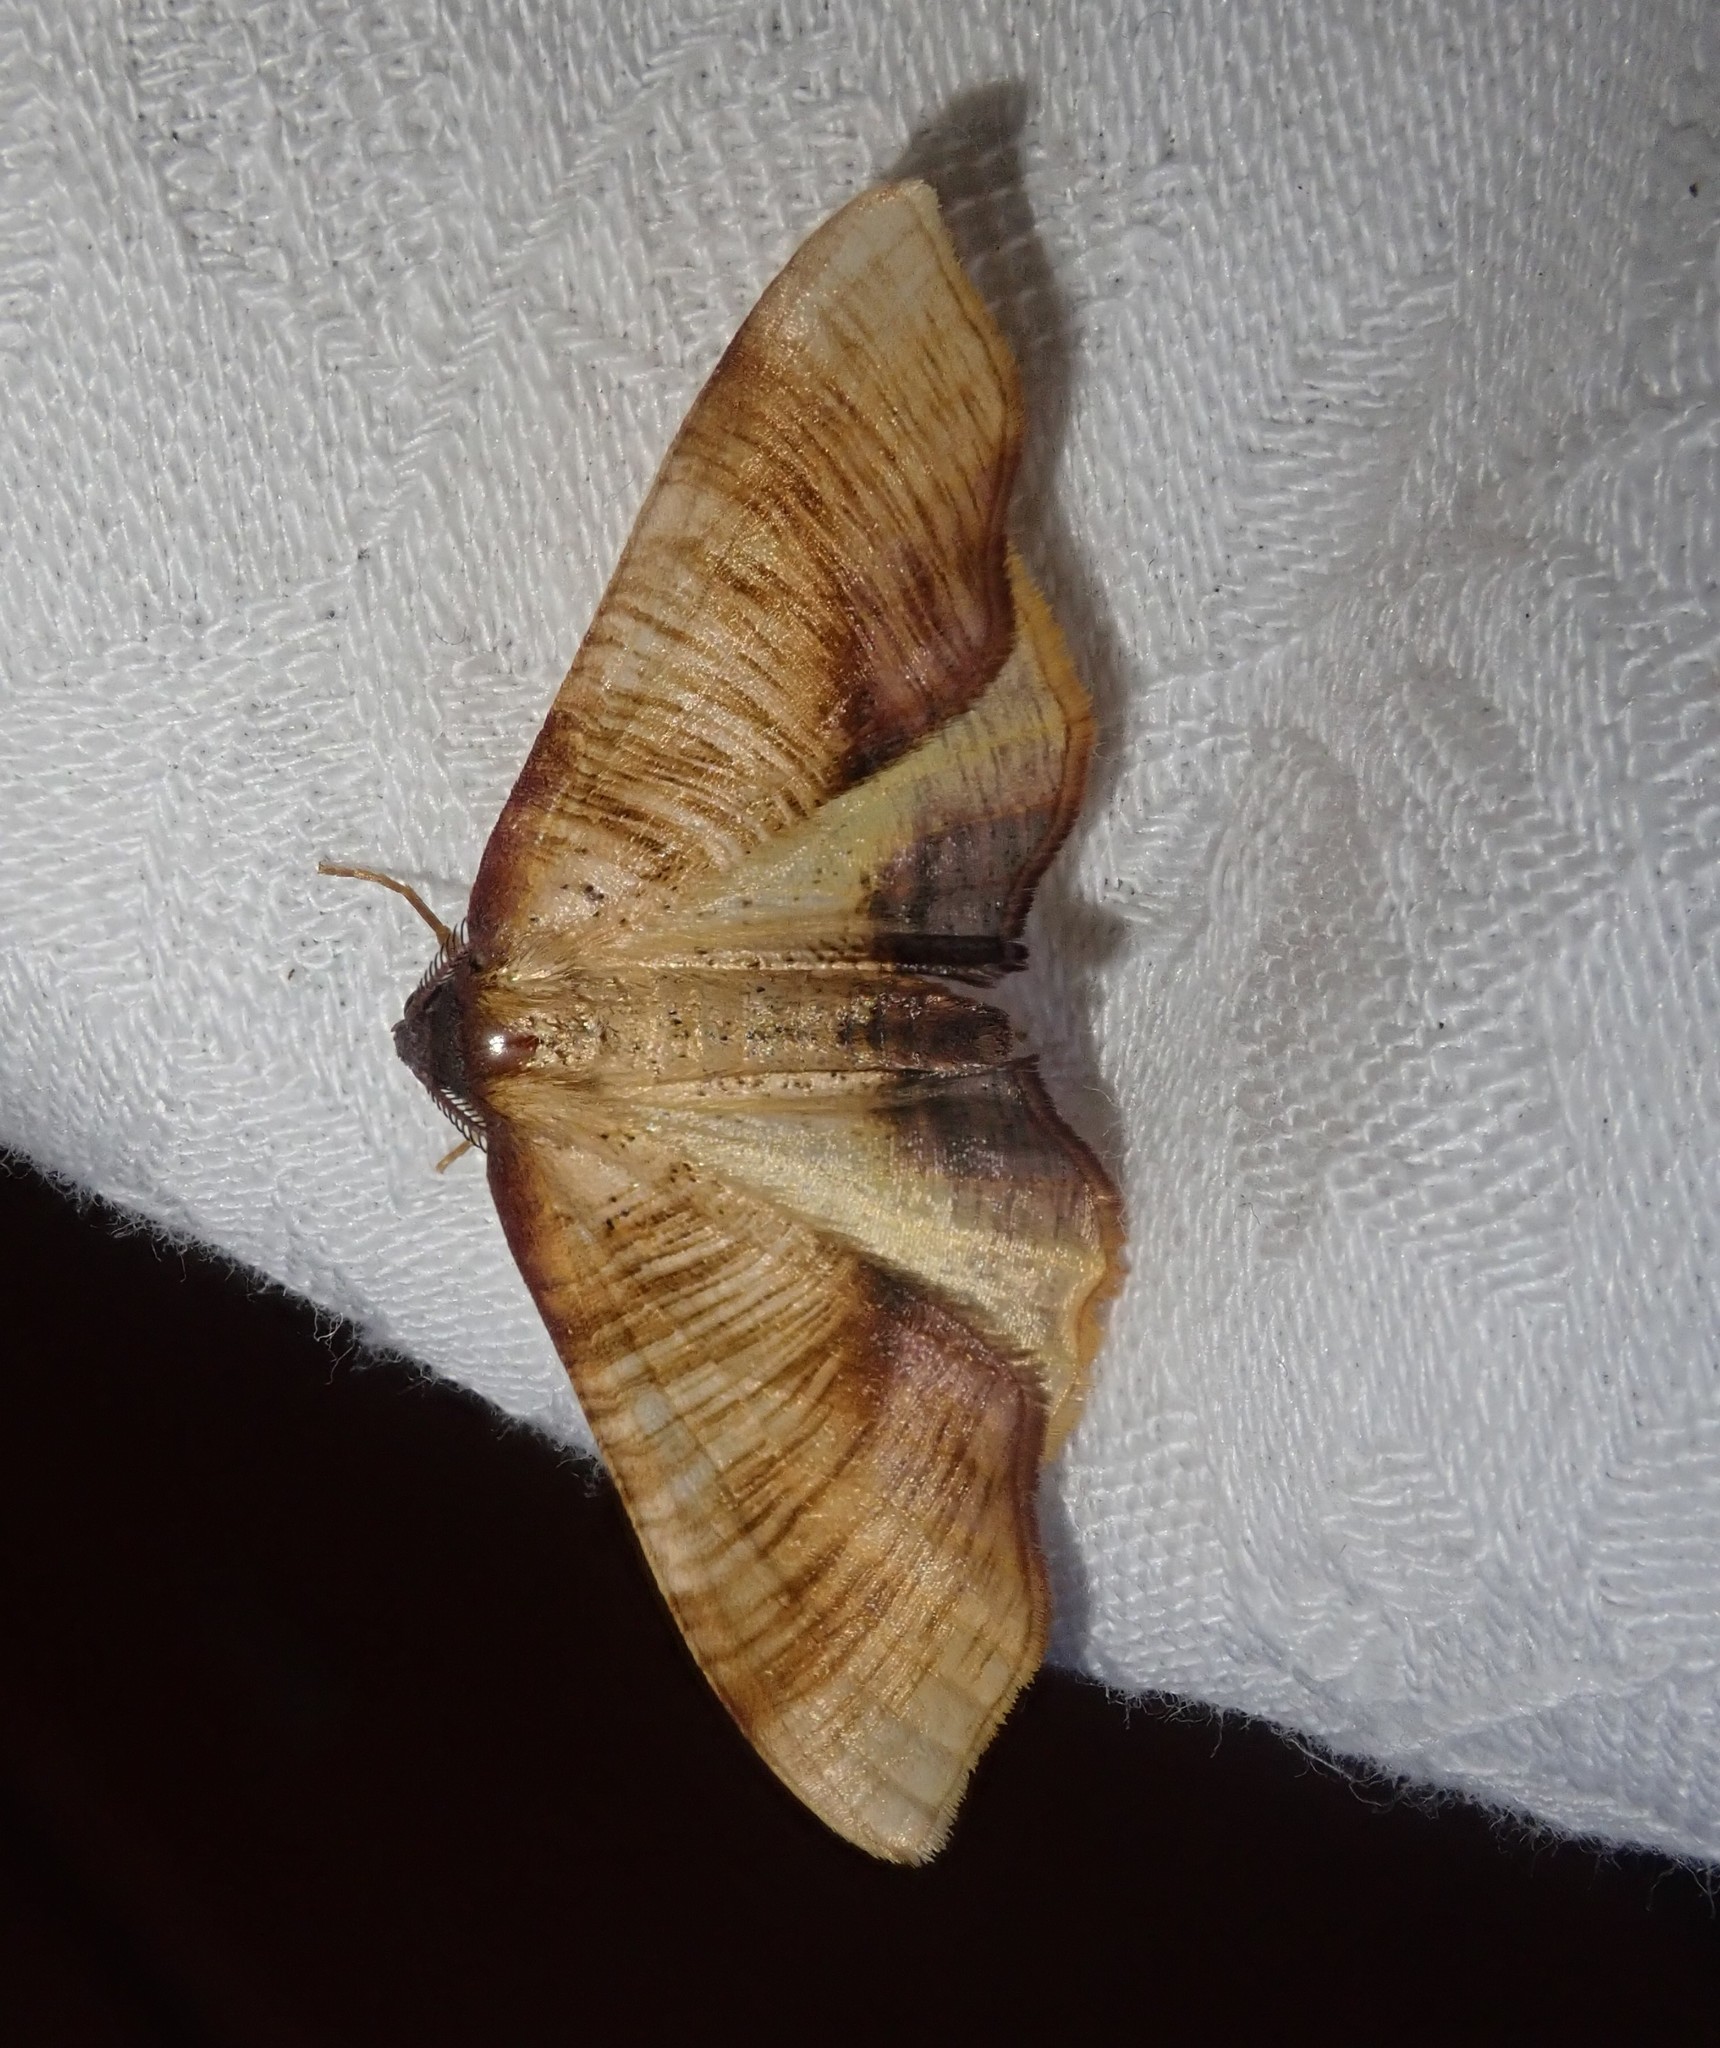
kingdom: Animalia
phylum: Arthropoda
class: Insecta
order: Lepidoptera
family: Geometridae
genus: Plagodis
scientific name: Plagodis dolabraria
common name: Scorched wing
